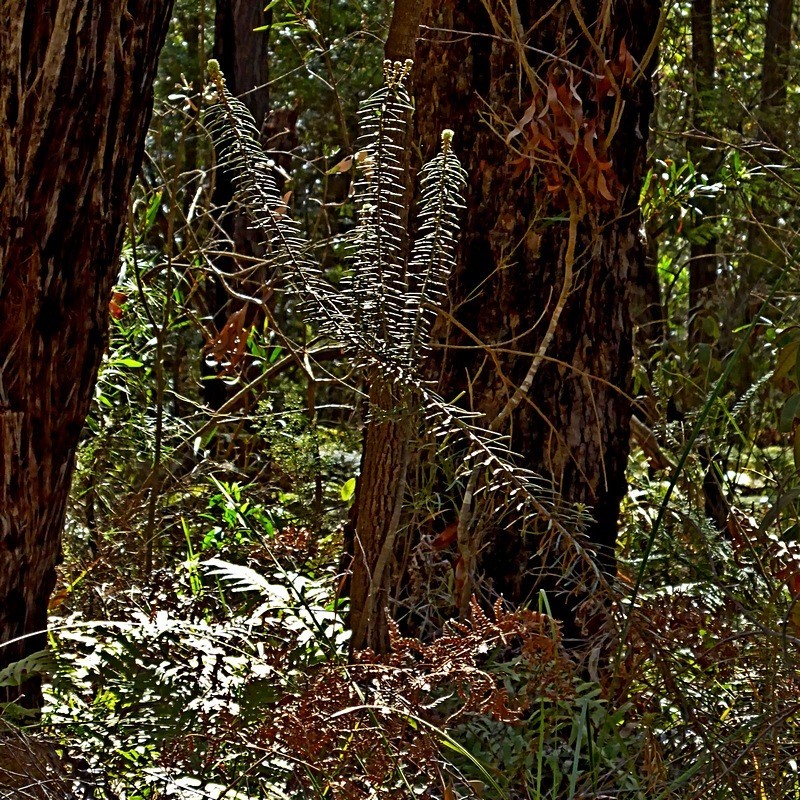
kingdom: Plantae
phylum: Tracheophyta
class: Magnoliopsida
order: Apiales
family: Araliaceae
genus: Astrotricha
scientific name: Astrotricha
